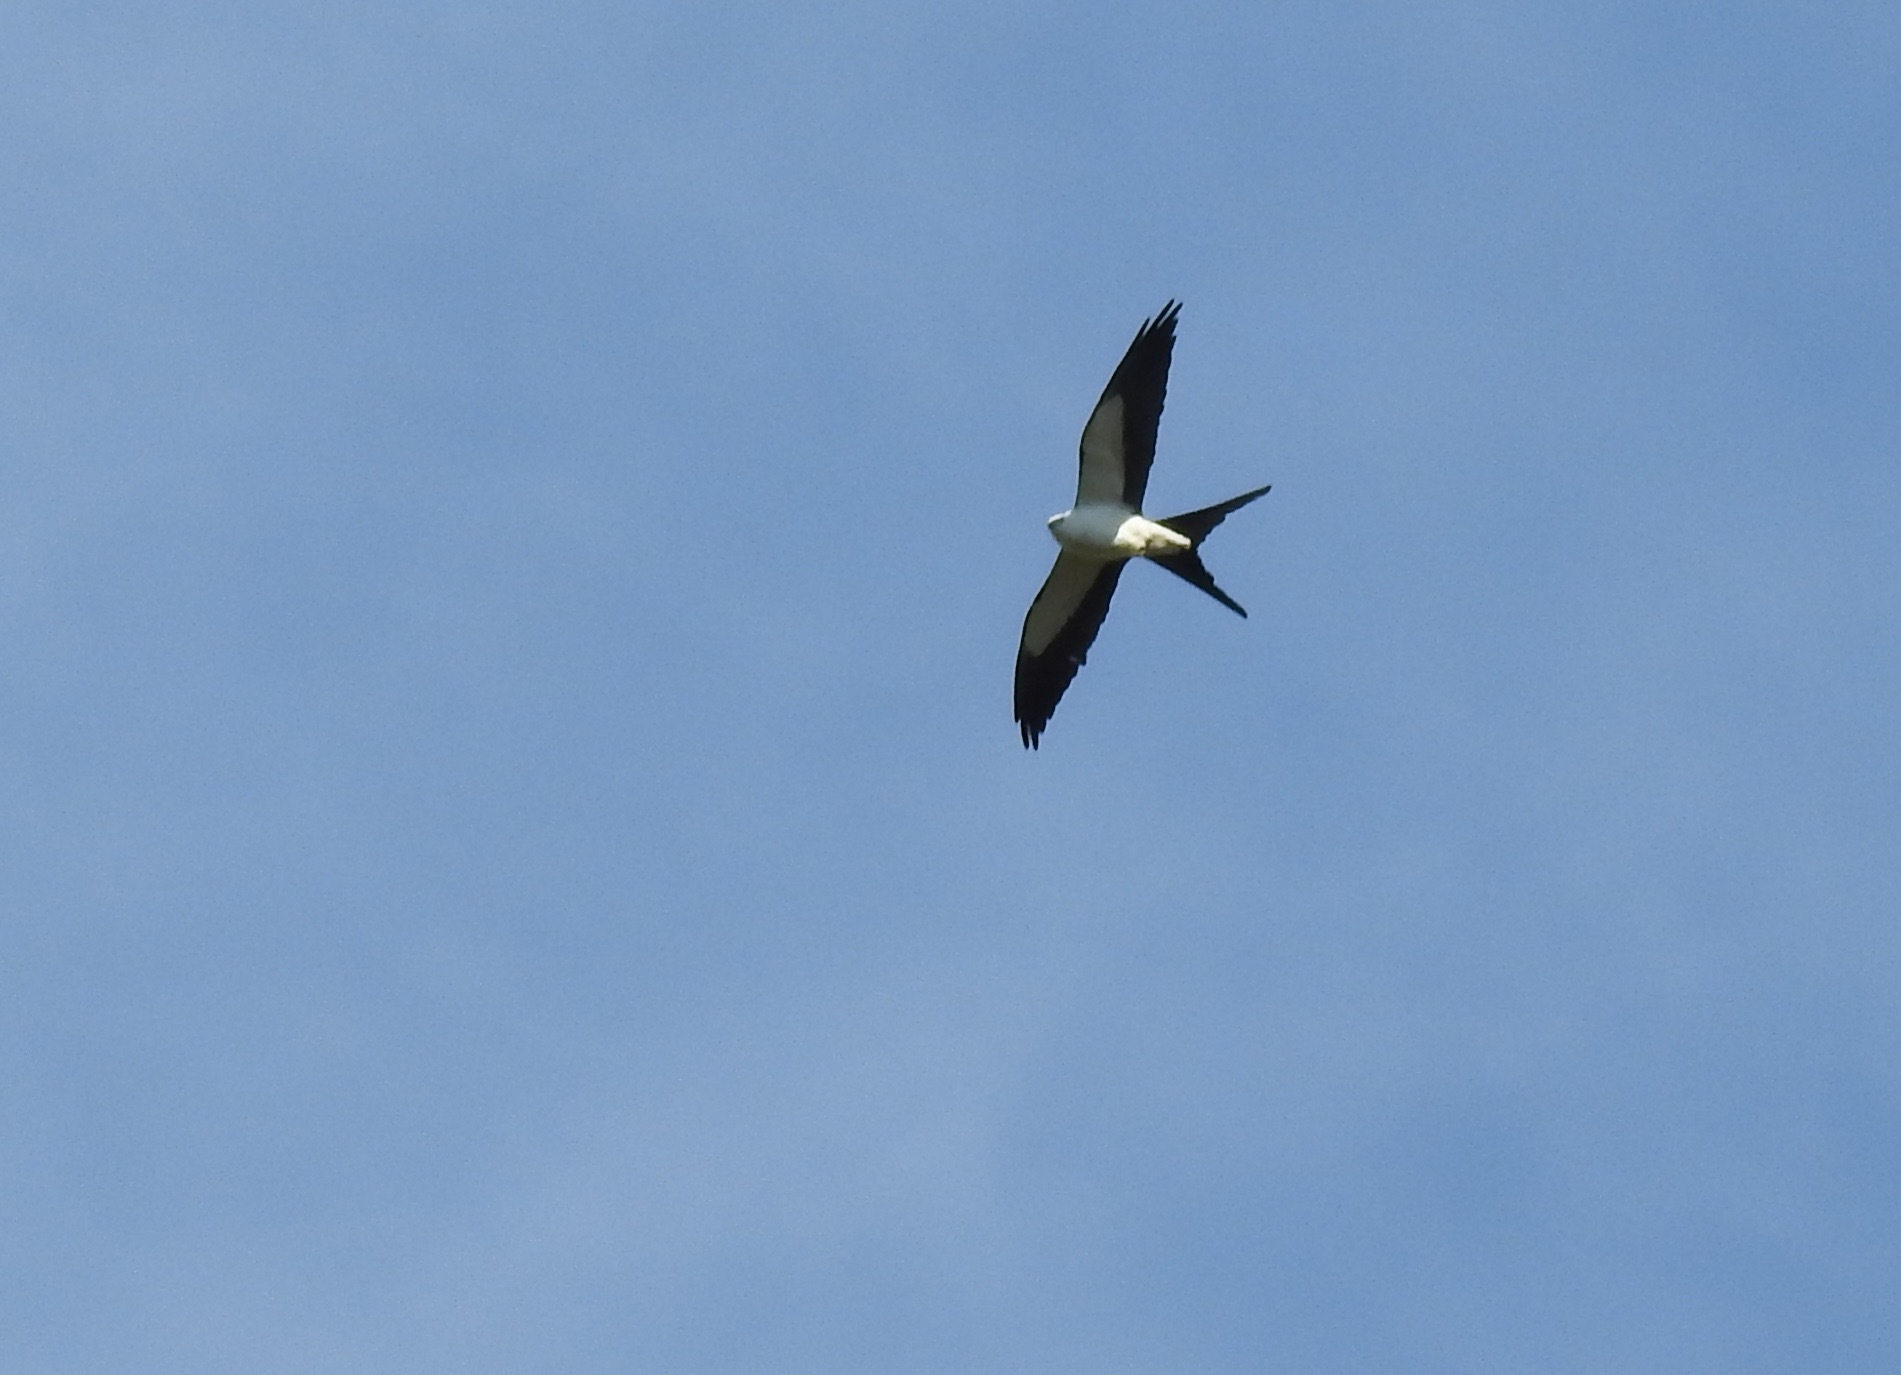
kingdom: Animalia
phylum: Chordata
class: Aves
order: Accipitriformes
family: Accipitridae
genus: Elanoides
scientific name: Elanoides forficatus
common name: Swallow-tailed kite
